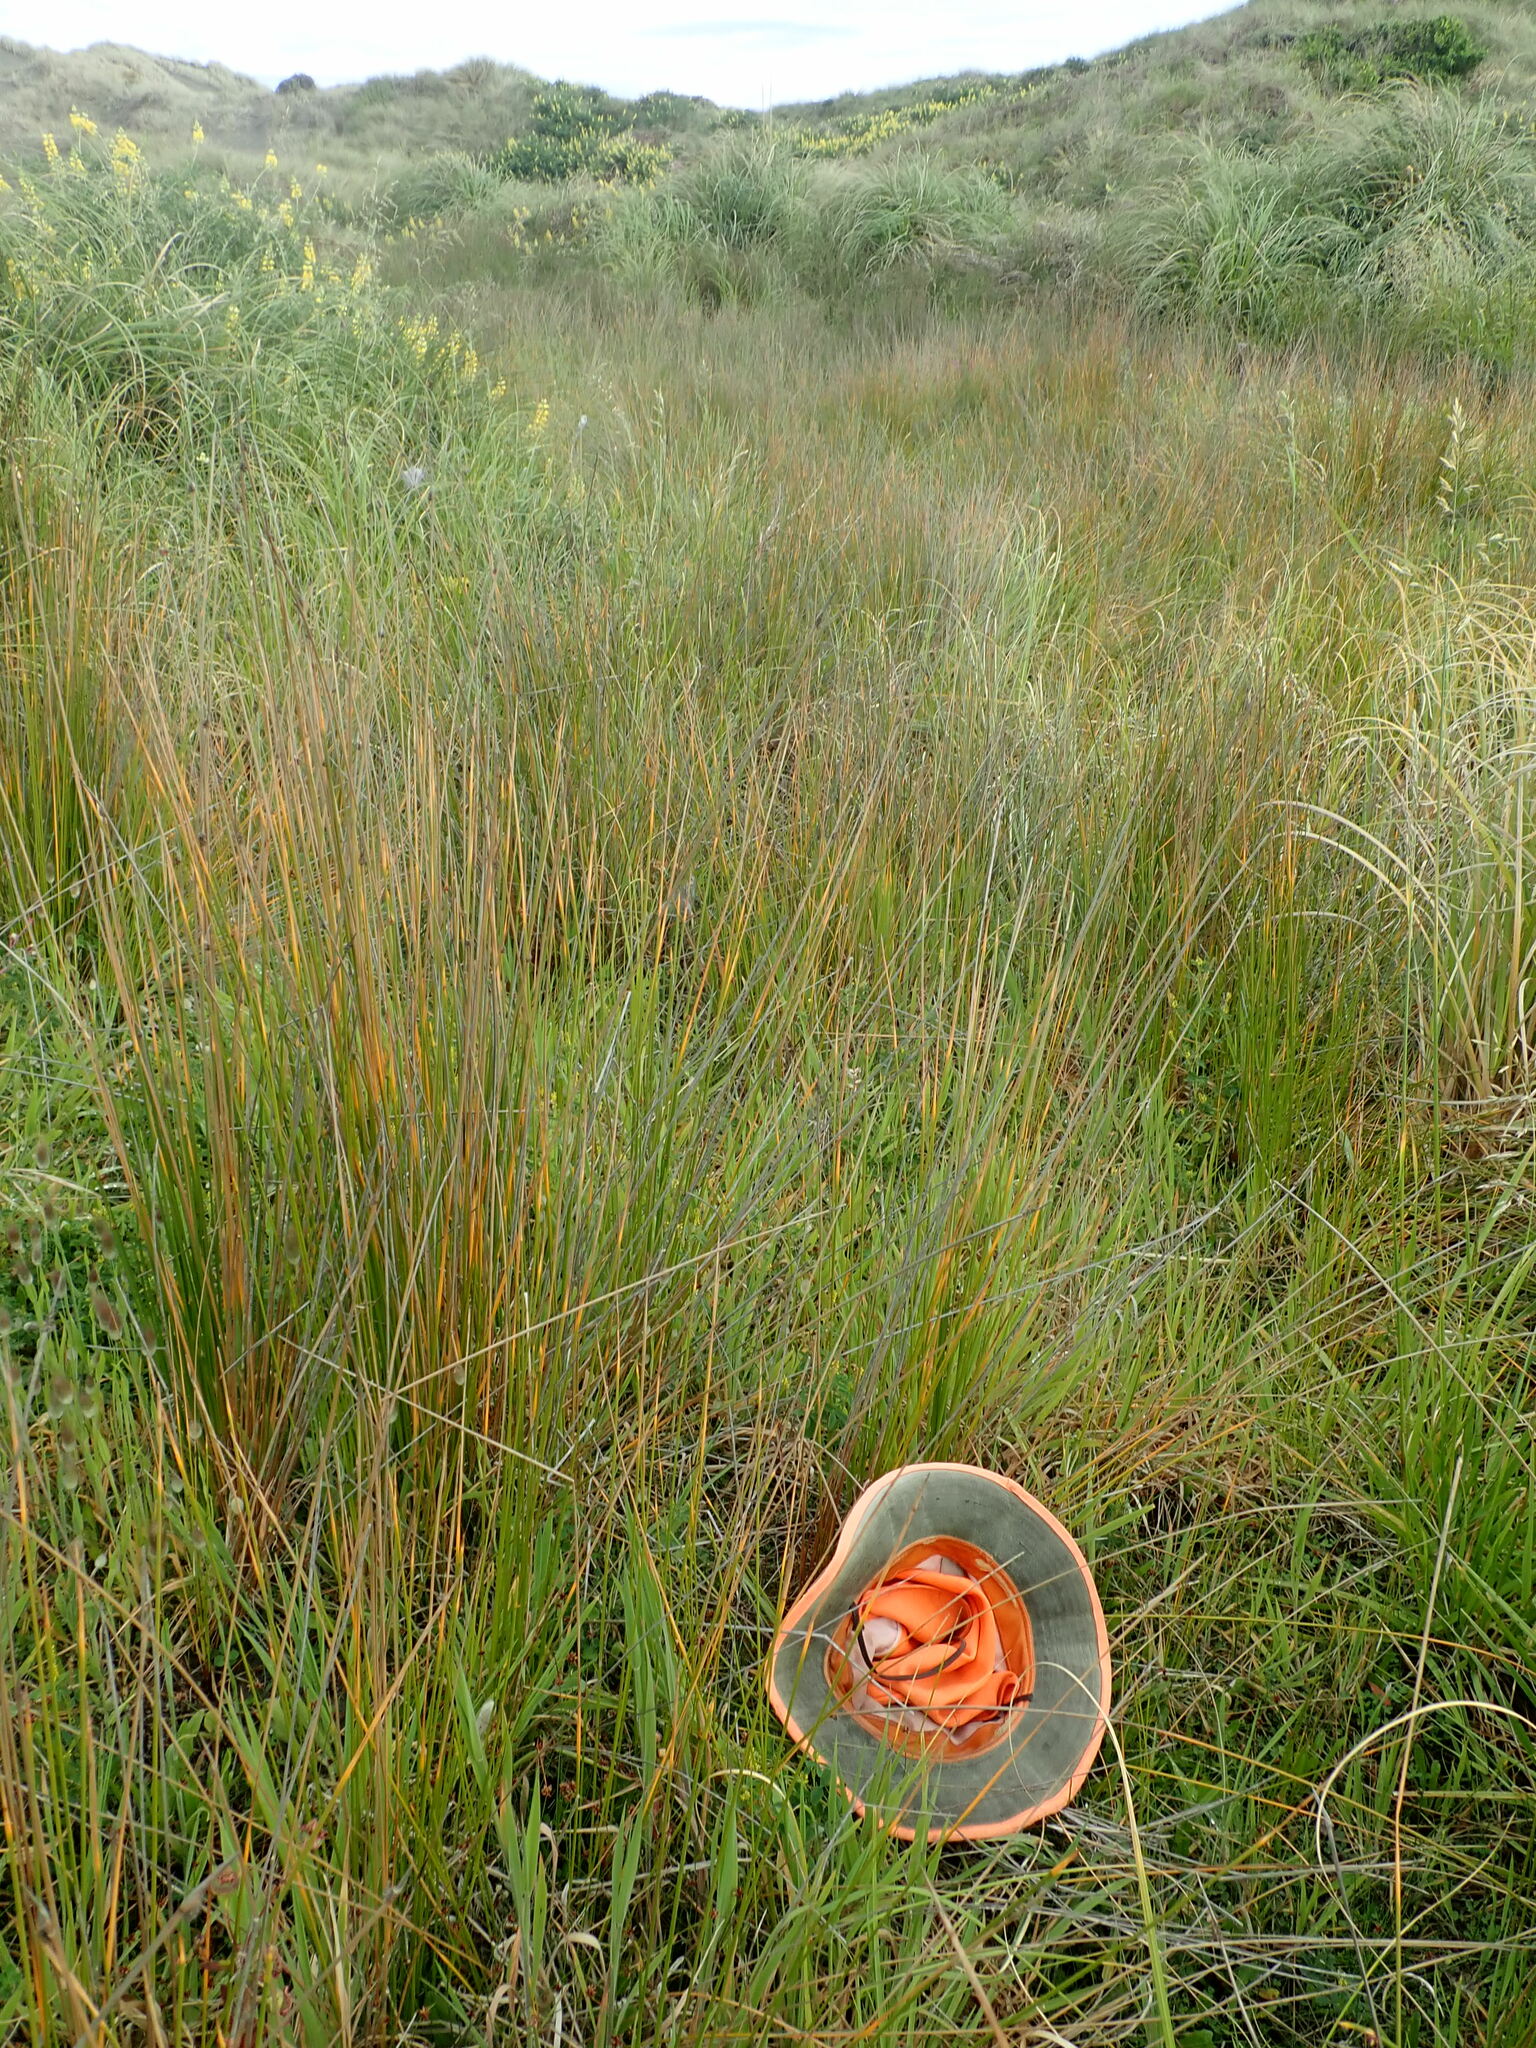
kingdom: Plantae
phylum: Tracheophyta
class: Liliopsida
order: Poales
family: Cyperaceae
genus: Schoenus
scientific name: Schoenus nitens
